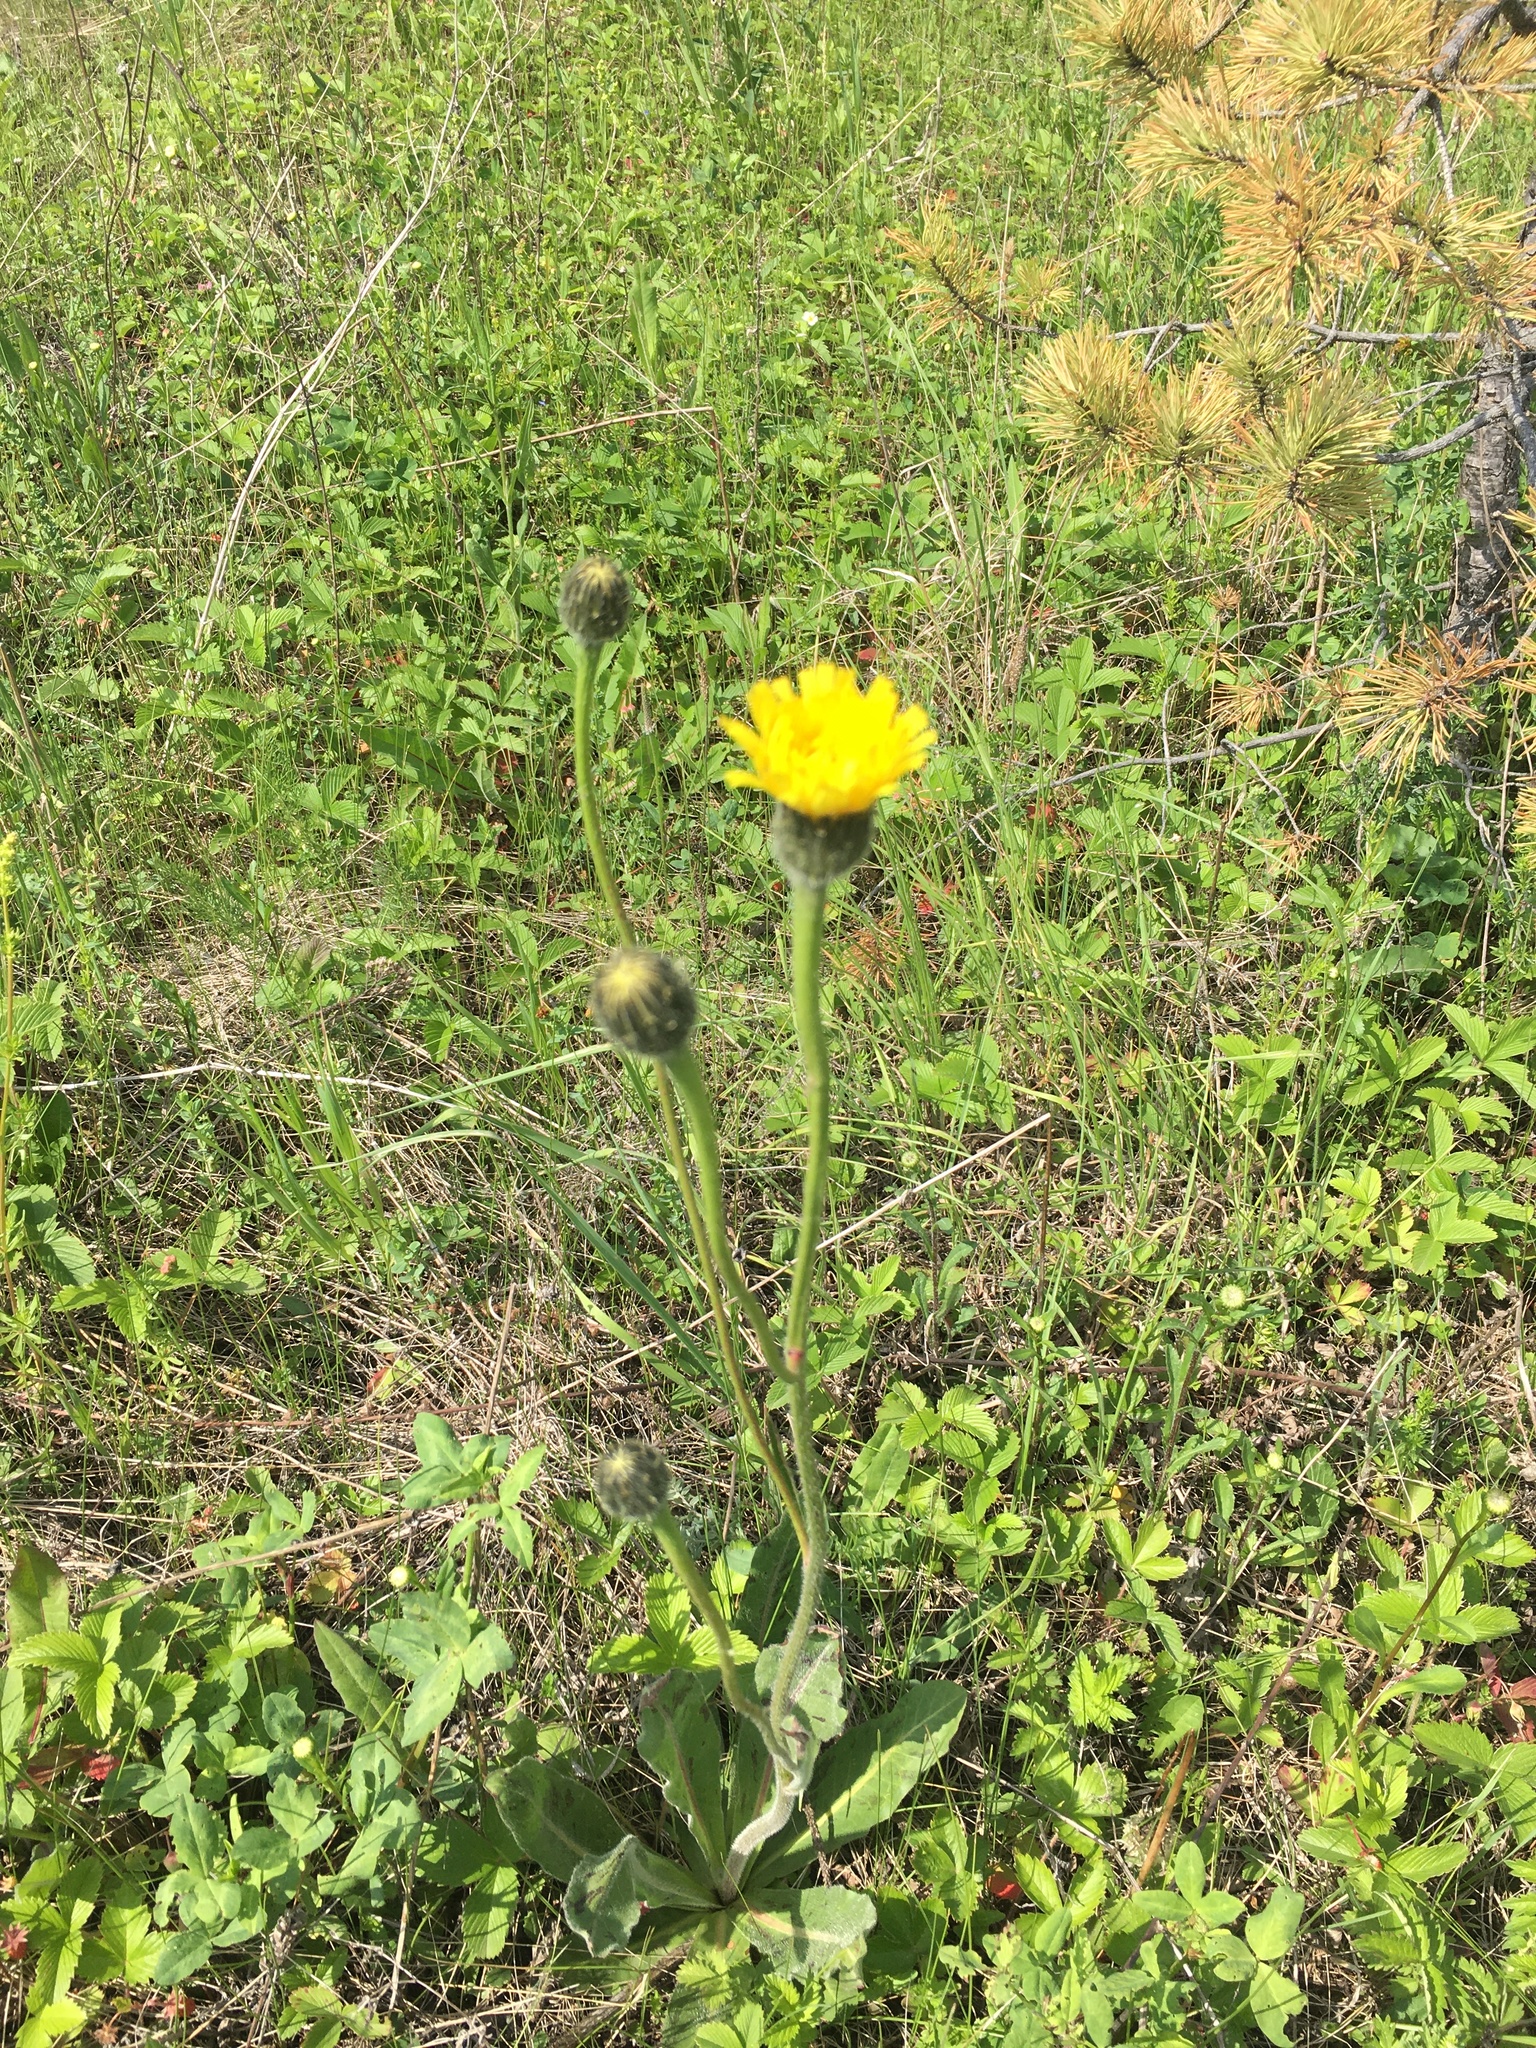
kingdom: Plantae
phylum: Tracheophyta
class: Magnoliopsida
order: Asterales
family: Asteraceae
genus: Trommsdorffia
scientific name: Trommsdorffia maculata
